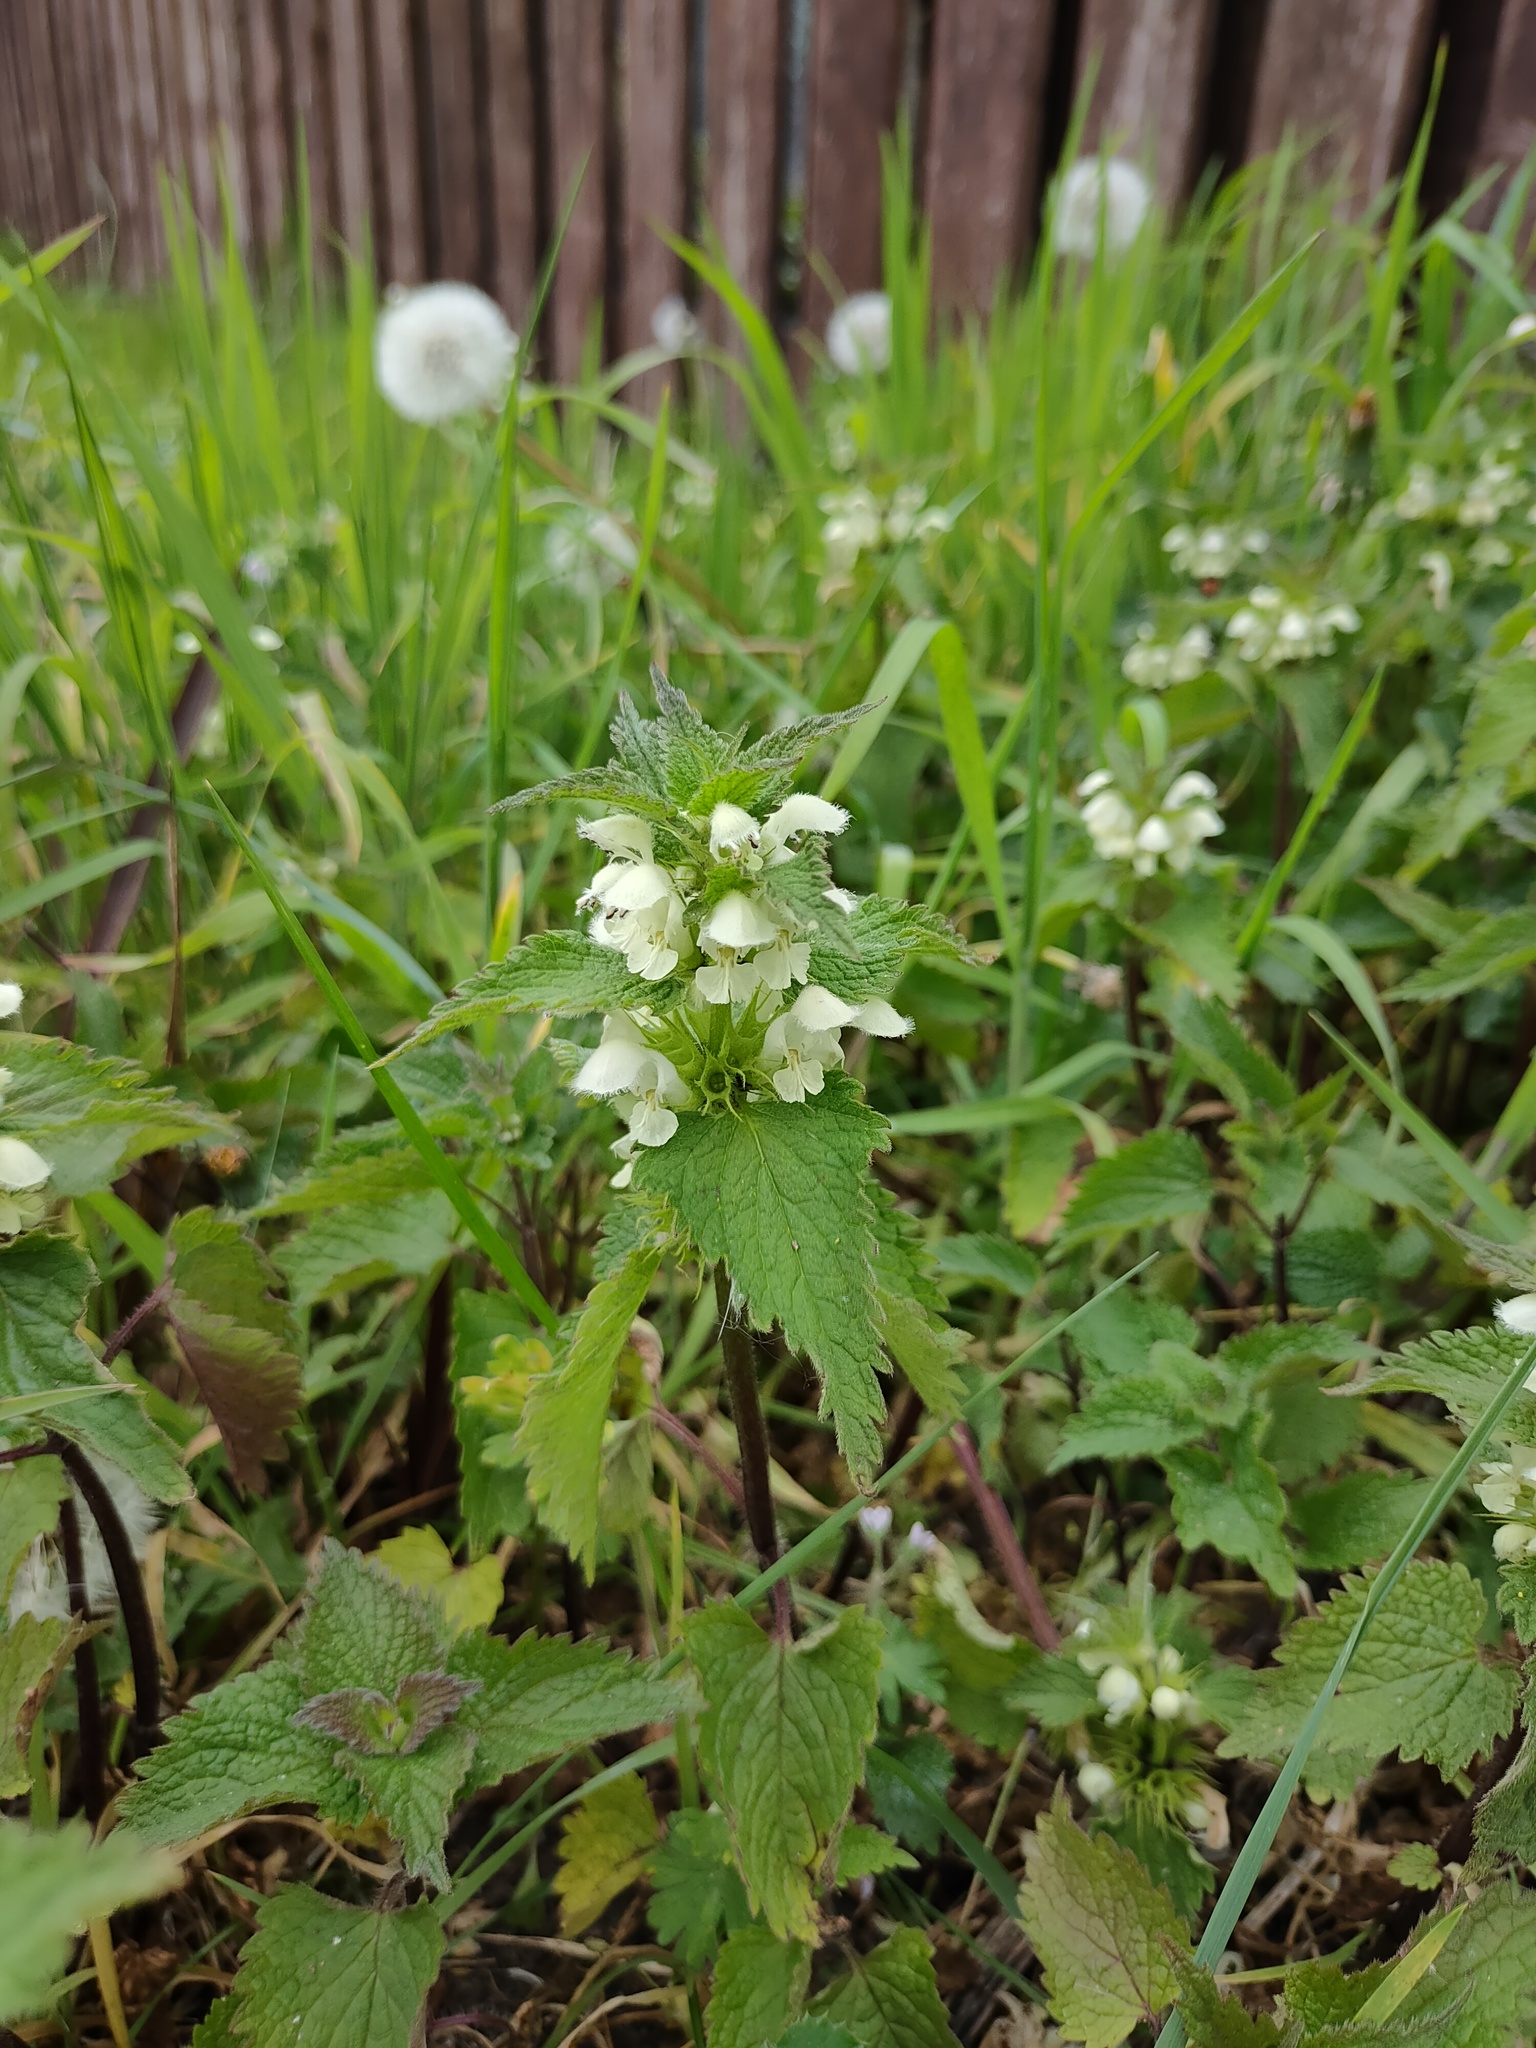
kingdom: Plantae
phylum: Tracheophyta
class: Magnoliopsida
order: Lamiales
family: Lamiaceae
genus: Lamium
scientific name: Lamium album
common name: White dead-nettle
